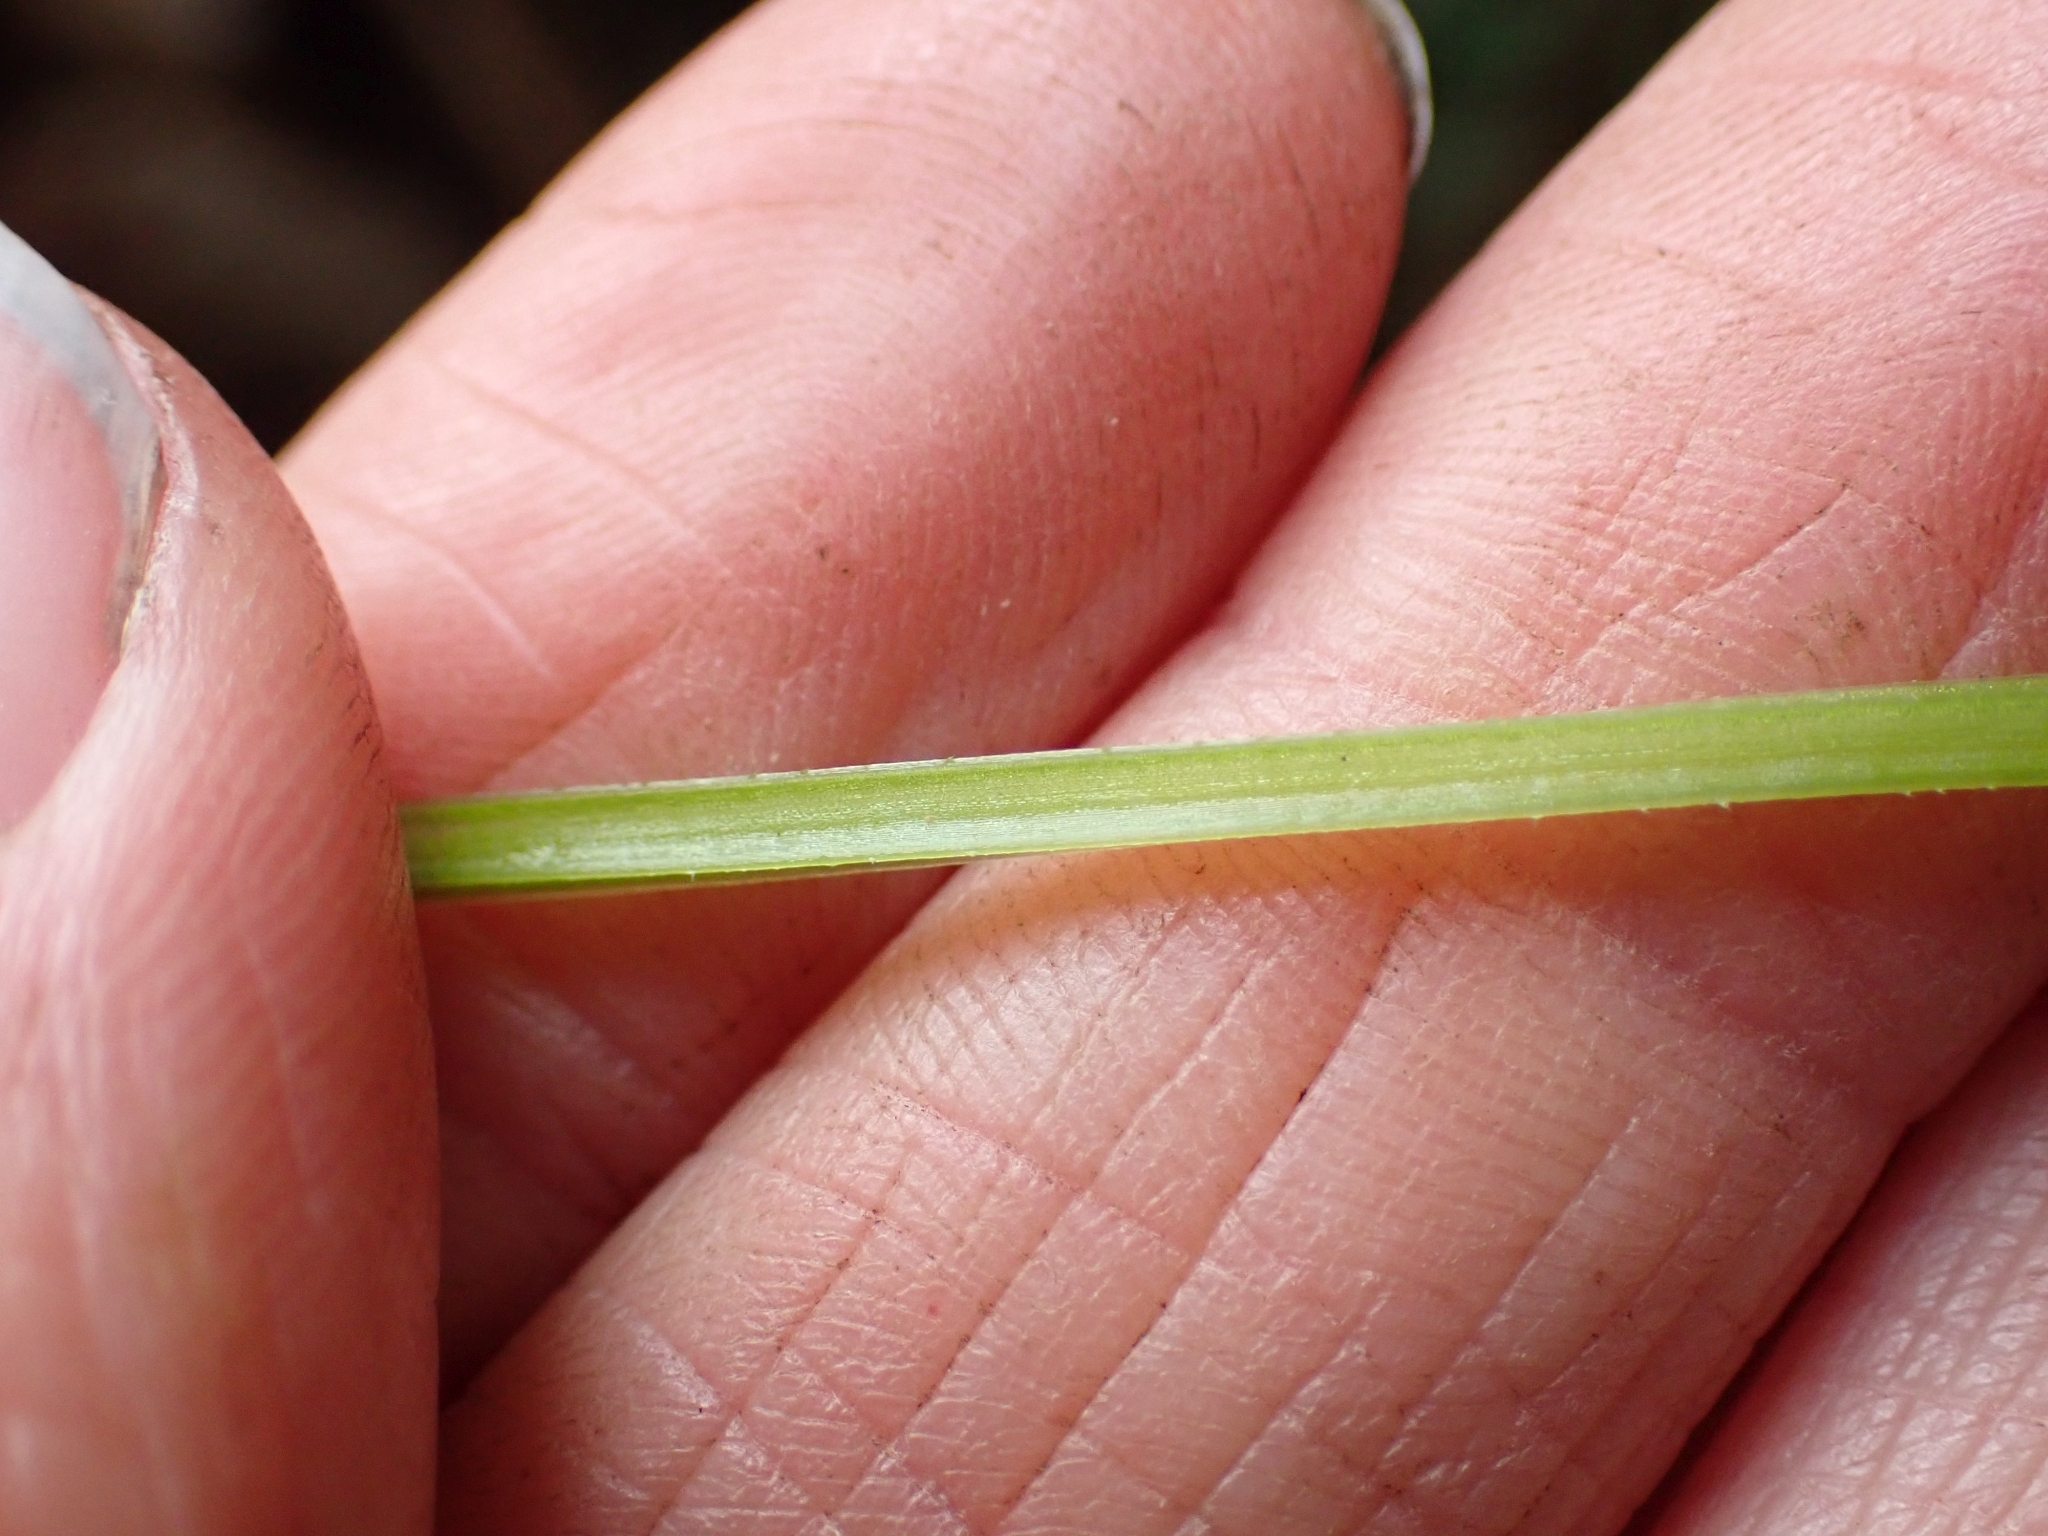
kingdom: Plantae
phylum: Tracheophyta
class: Magnoliopsida
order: Gentianales
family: Rubiaceae
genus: Galium
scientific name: Galium triflorum
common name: Fragrant bedstraw
